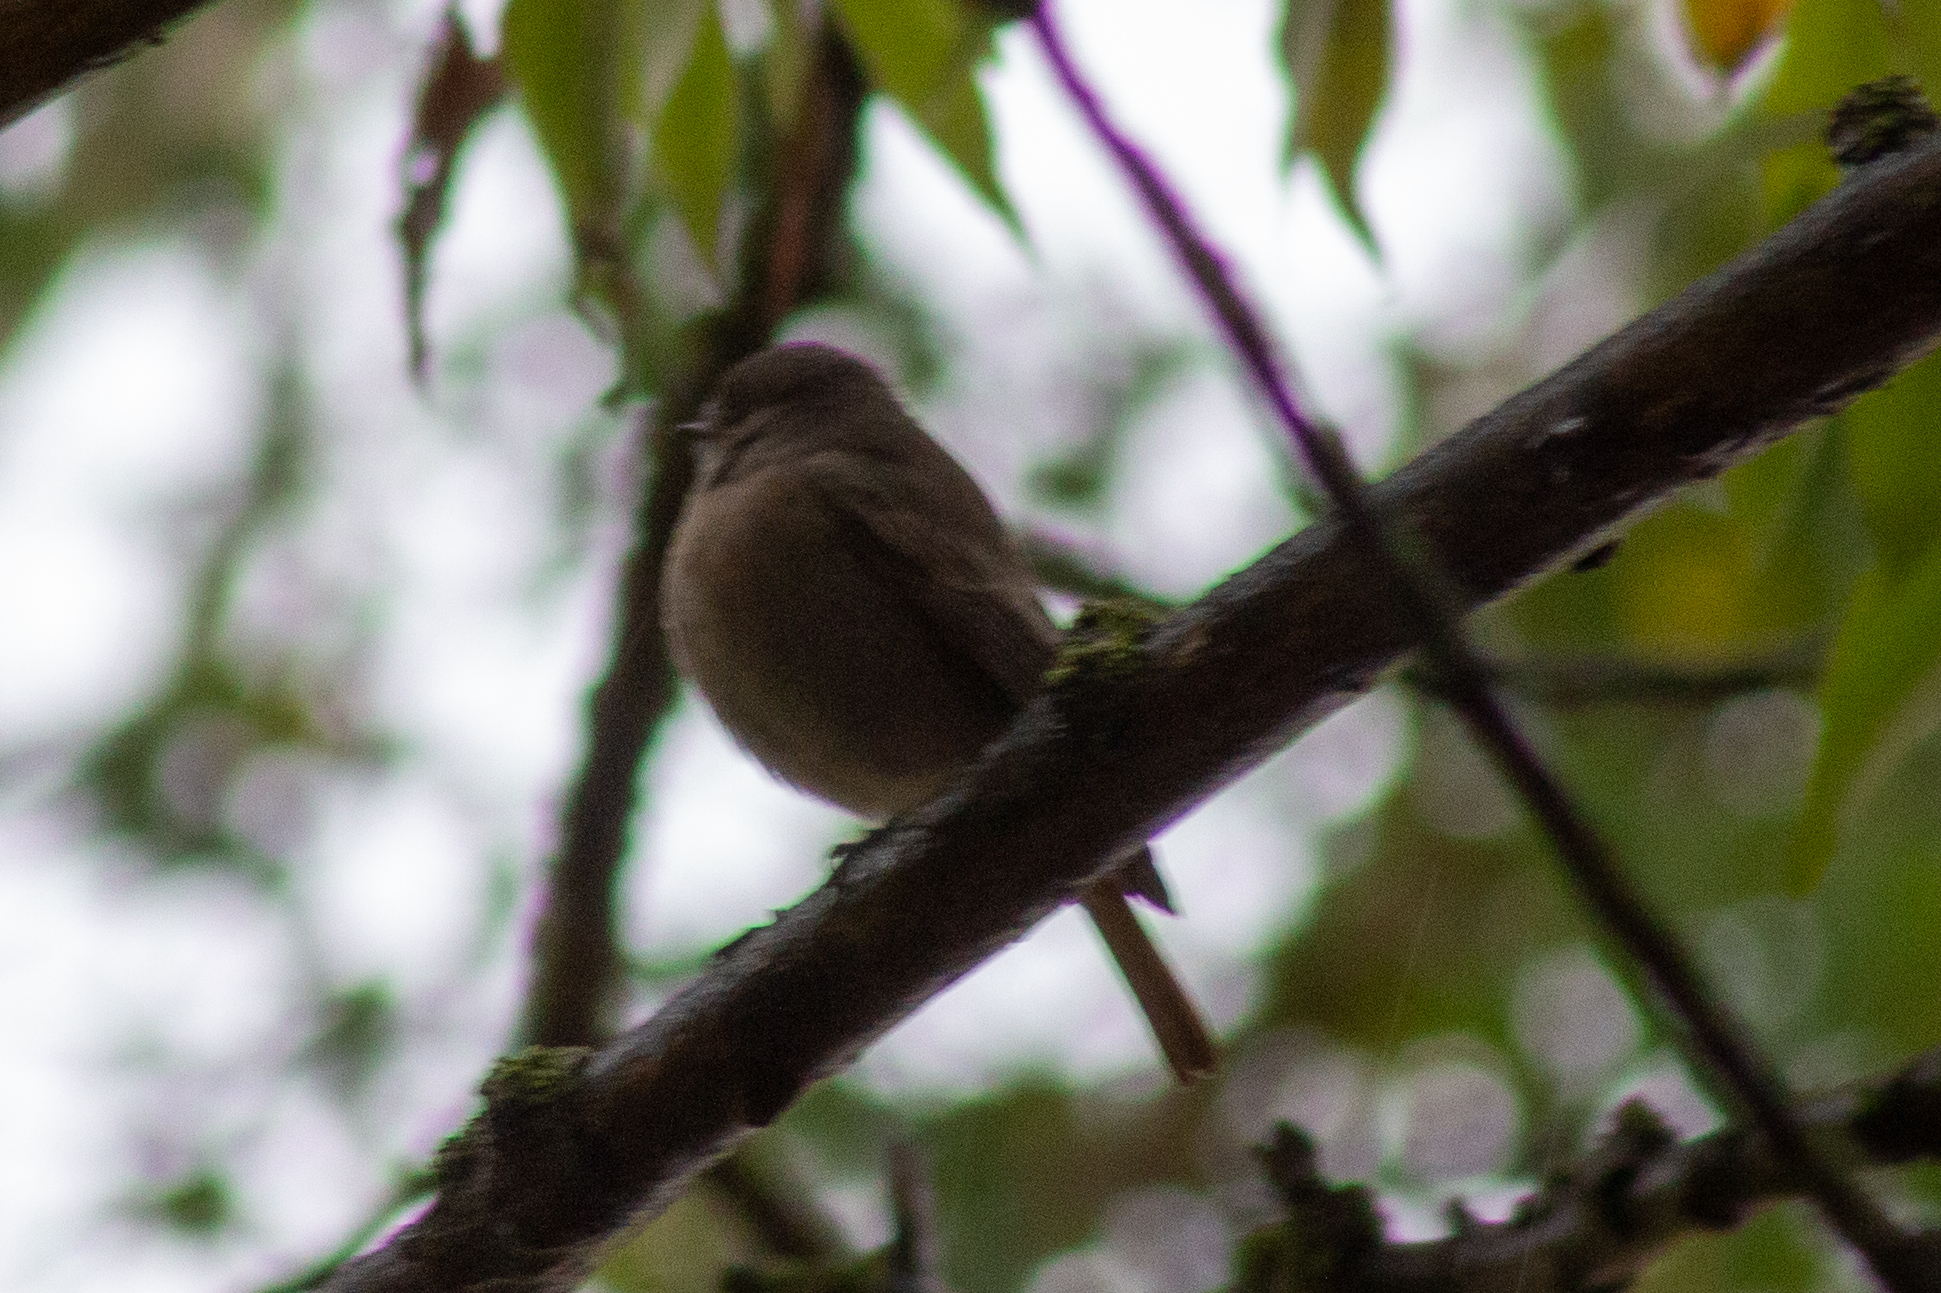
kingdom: Animalia
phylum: Chordata
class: Aves
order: Passeriformes
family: Muscicapidae
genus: Phoenicurus
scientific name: Phoenicurus ochruros
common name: Black redstart
